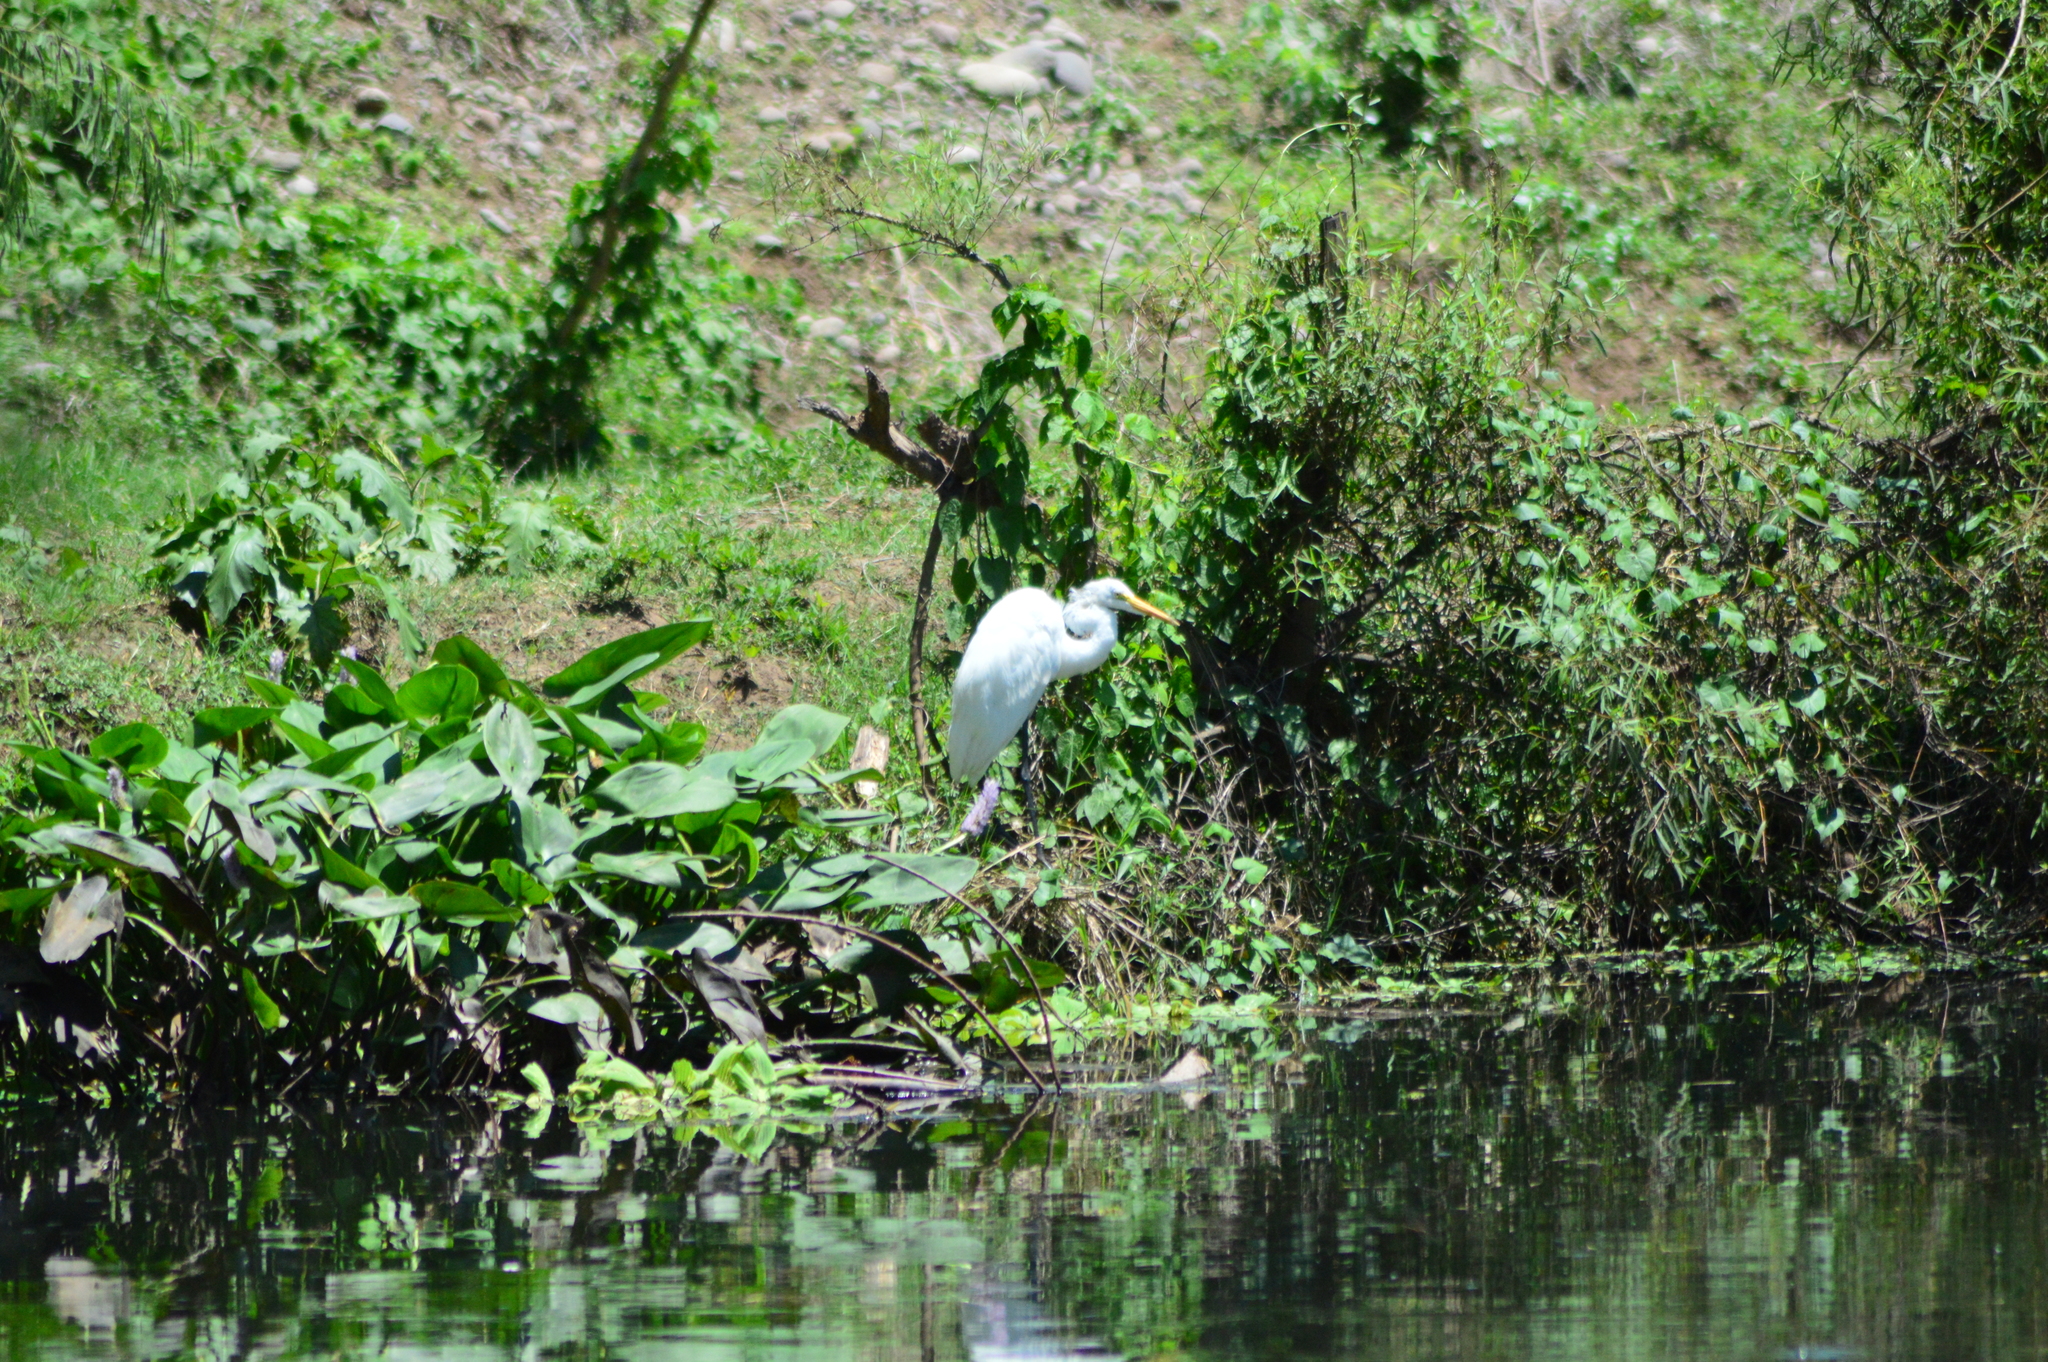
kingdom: Animalia
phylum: Chordata
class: Aves
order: Pelecaniformes
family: Ardeidae
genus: Ardea
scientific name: Ardea alba
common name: Great egret
